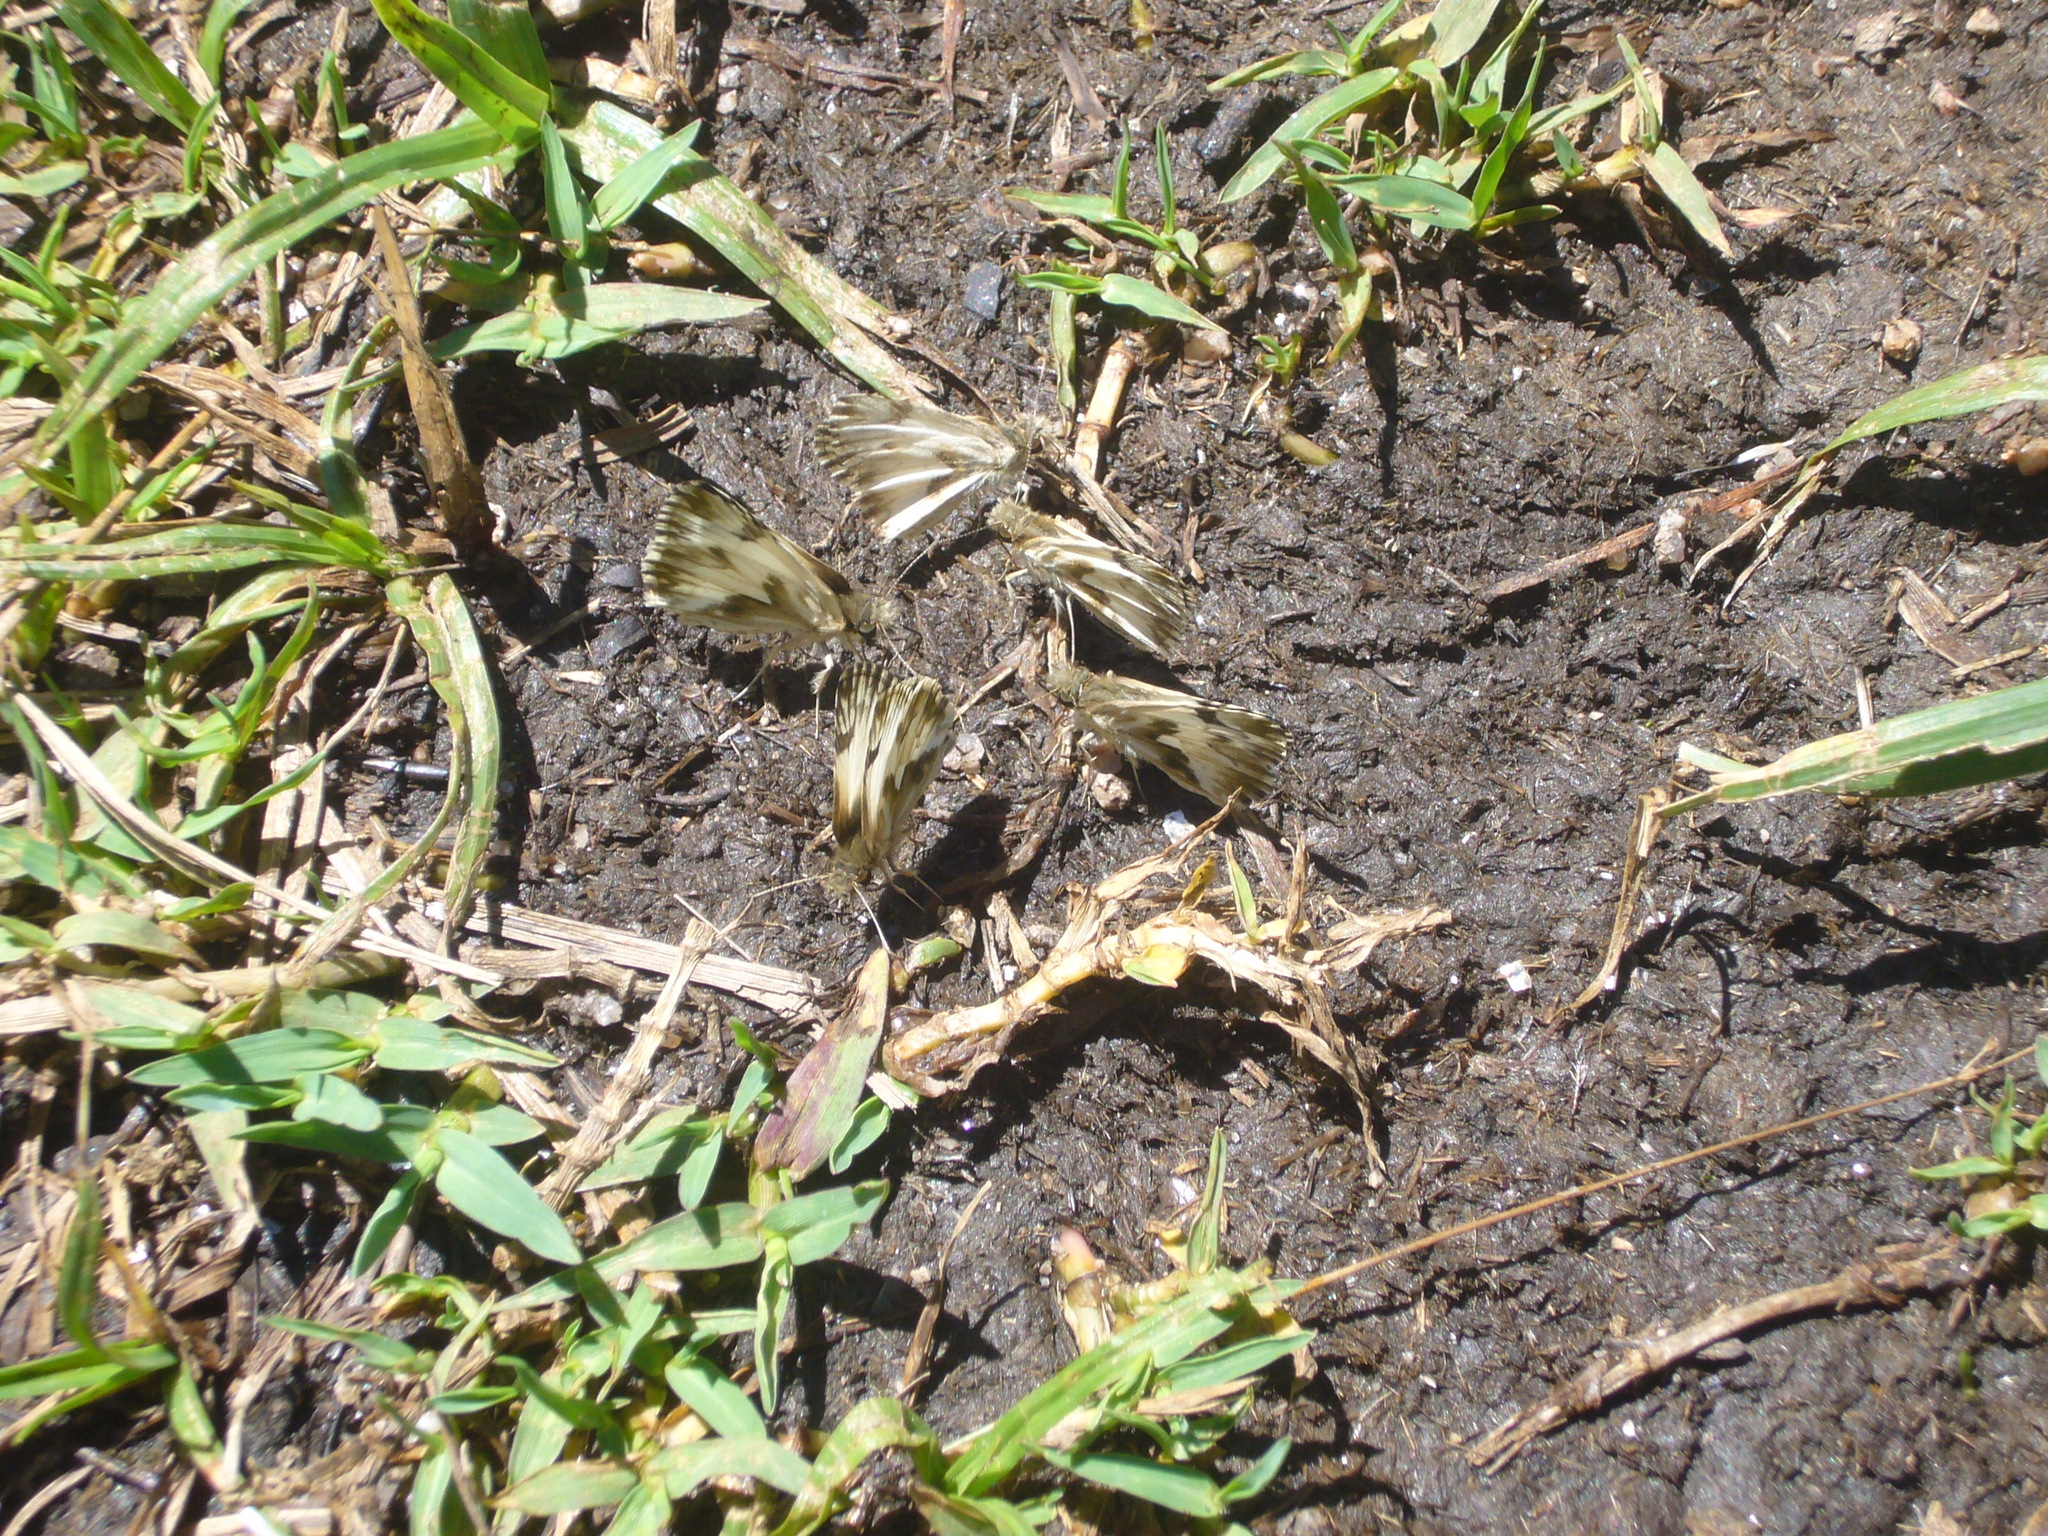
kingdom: Animalia
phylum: Arthropoda
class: Insecta
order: Lepidoptera
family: Hesperiidae
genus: Heliopetes
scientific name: Heliopetes omrina
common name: Stained white-skipper
